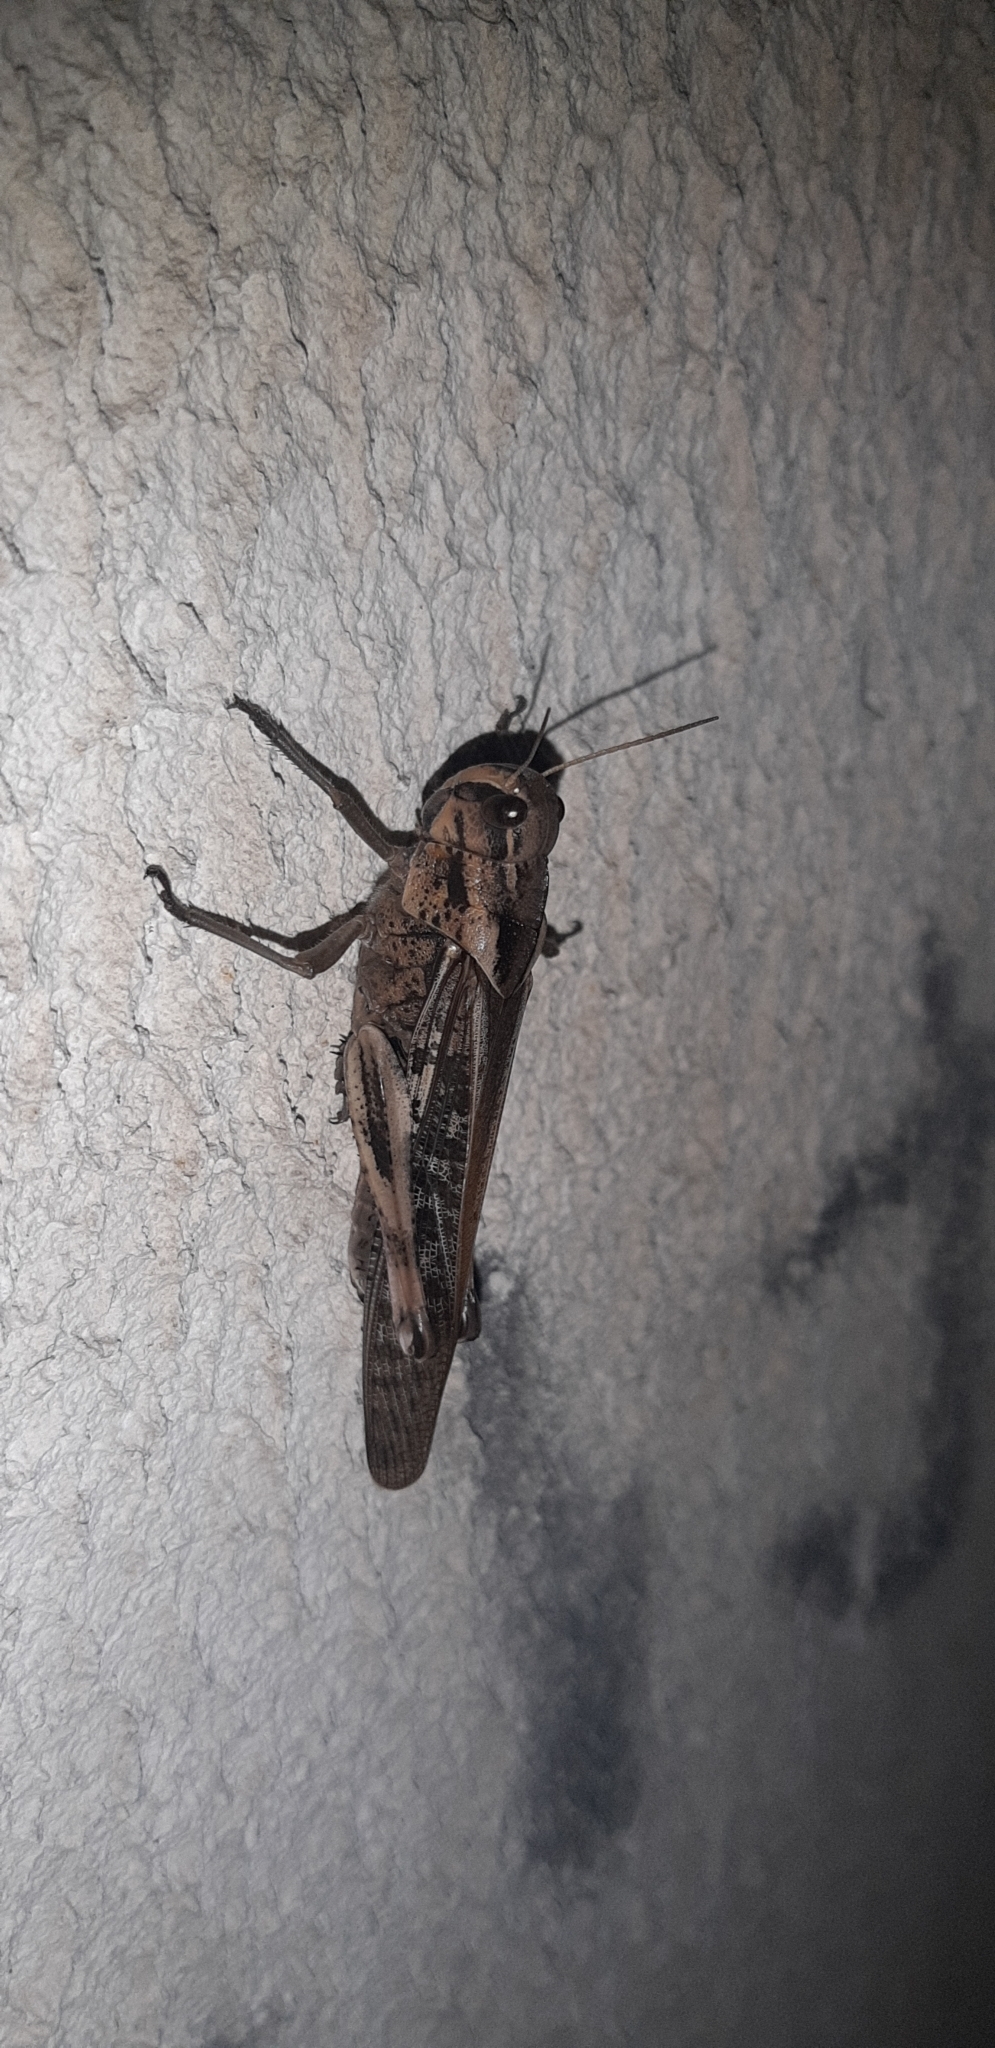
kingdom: Animalia
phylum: Arthropoda
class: Insecta
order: Orthoptera
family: Acrididae
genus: Locusta
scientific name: Locusta migratoria
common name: Migratory locust
